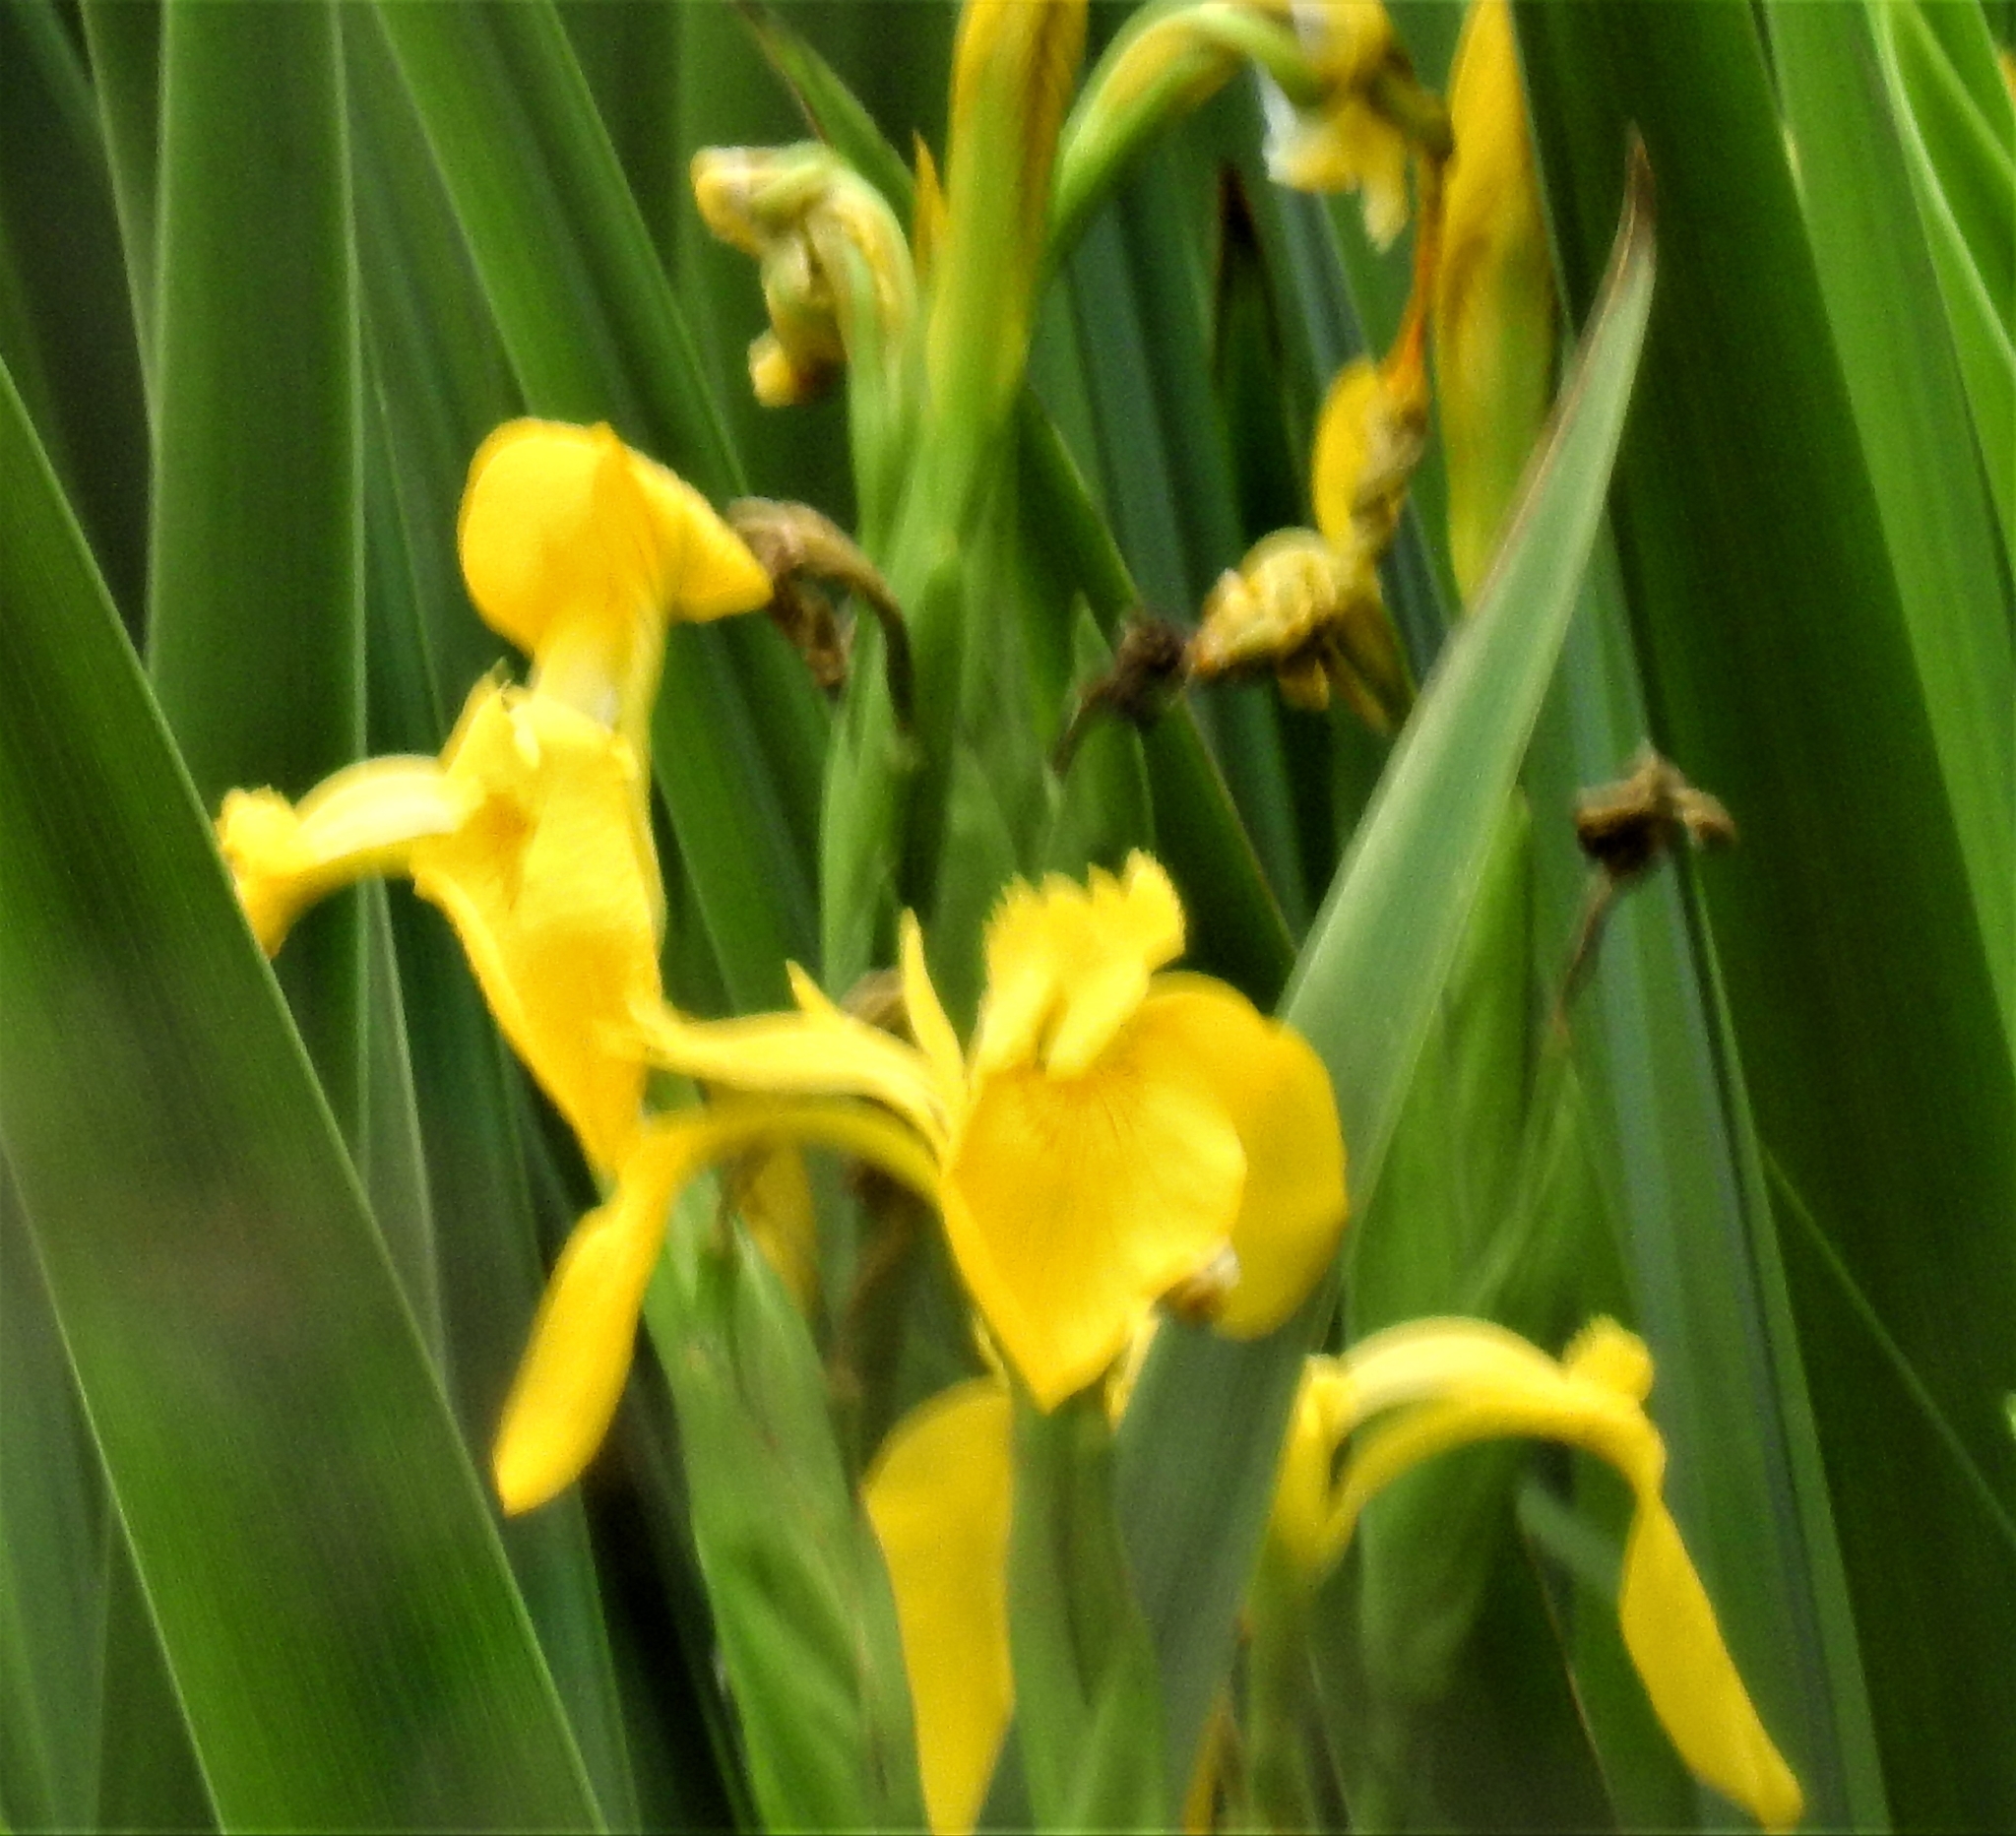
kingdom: Plantae
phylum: Tracheophyta
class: Liliopsida
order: Asparagales
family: Iridaceae
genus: Iris
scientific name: Iris pseudacorus
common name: Yellow flag
